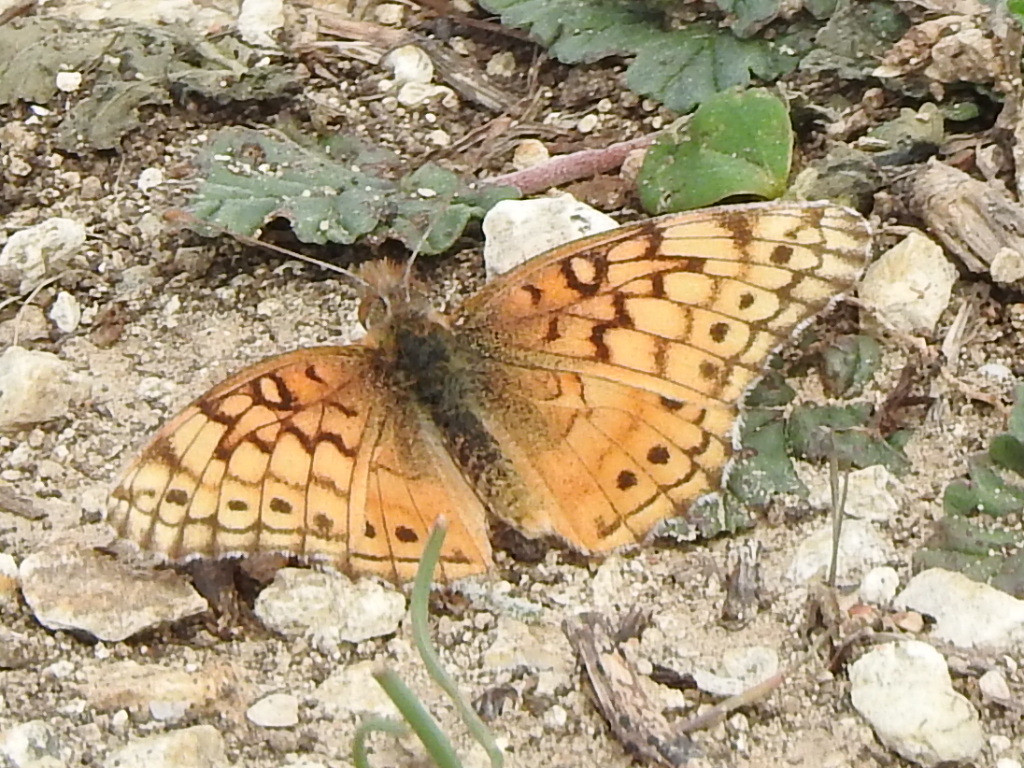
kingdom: Animalia
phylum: Arthropoda
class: Insecta
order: Lepidoptera
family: Nymphalidae
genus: Euptoieta
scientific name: Euptoieta claudia
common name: Variegated fritillary
